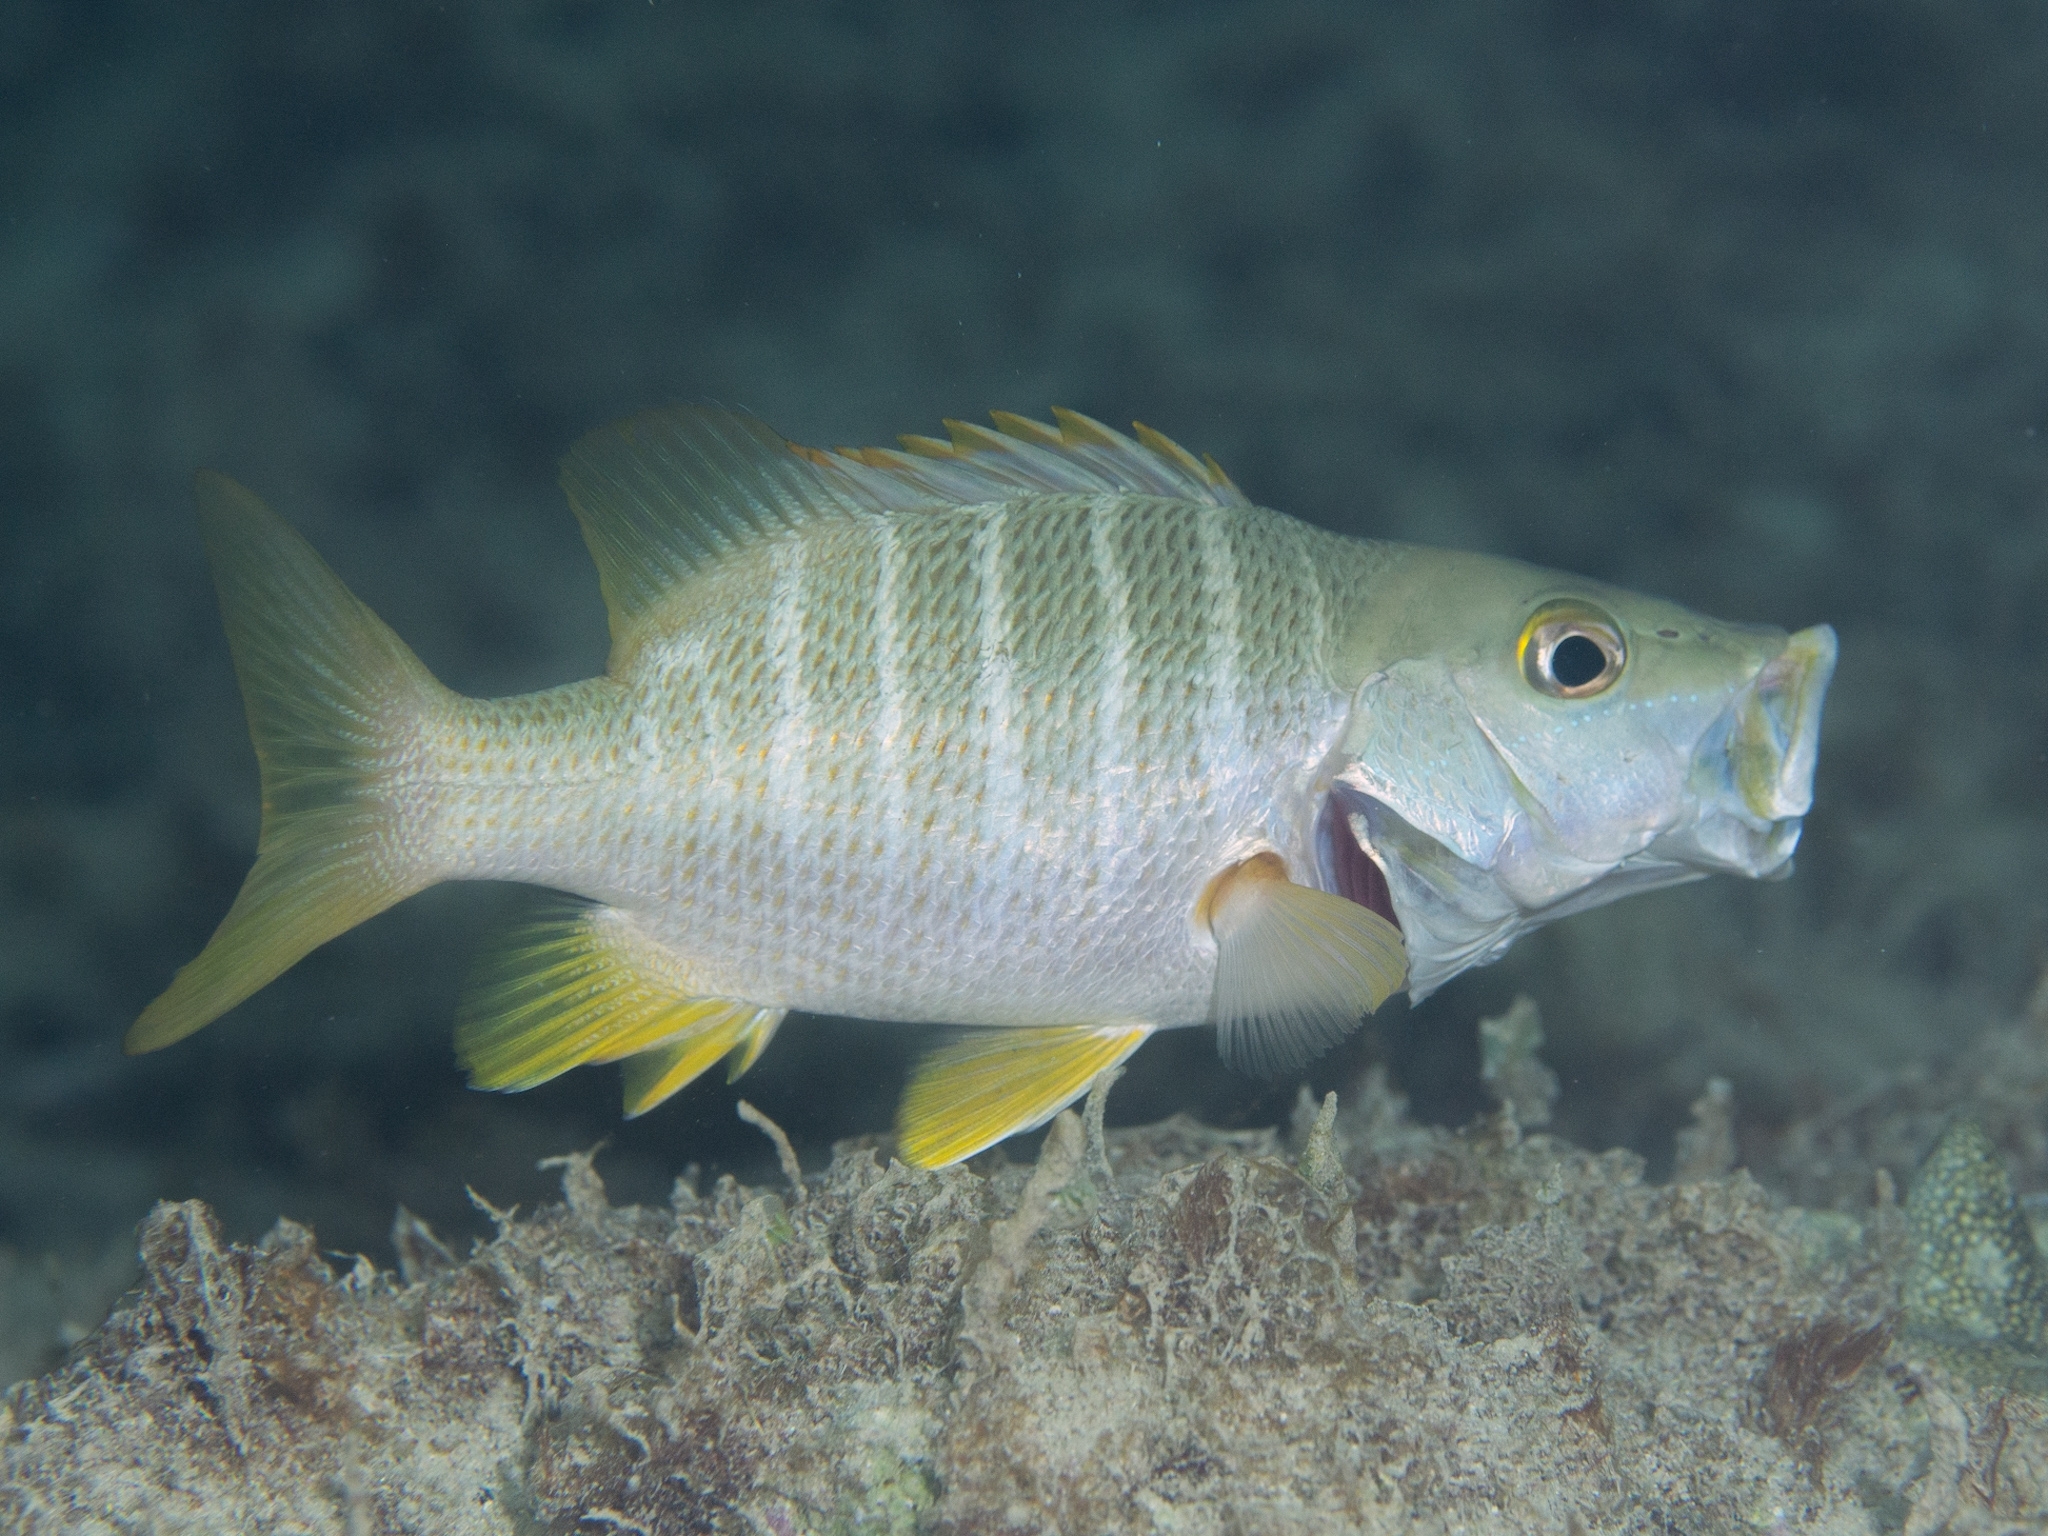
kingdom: Animalia
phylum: Chordata
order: Perciformes
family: Lutjanidae
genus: Lutjanus
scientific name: Lutjanus apodus
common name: Schoolmaster
